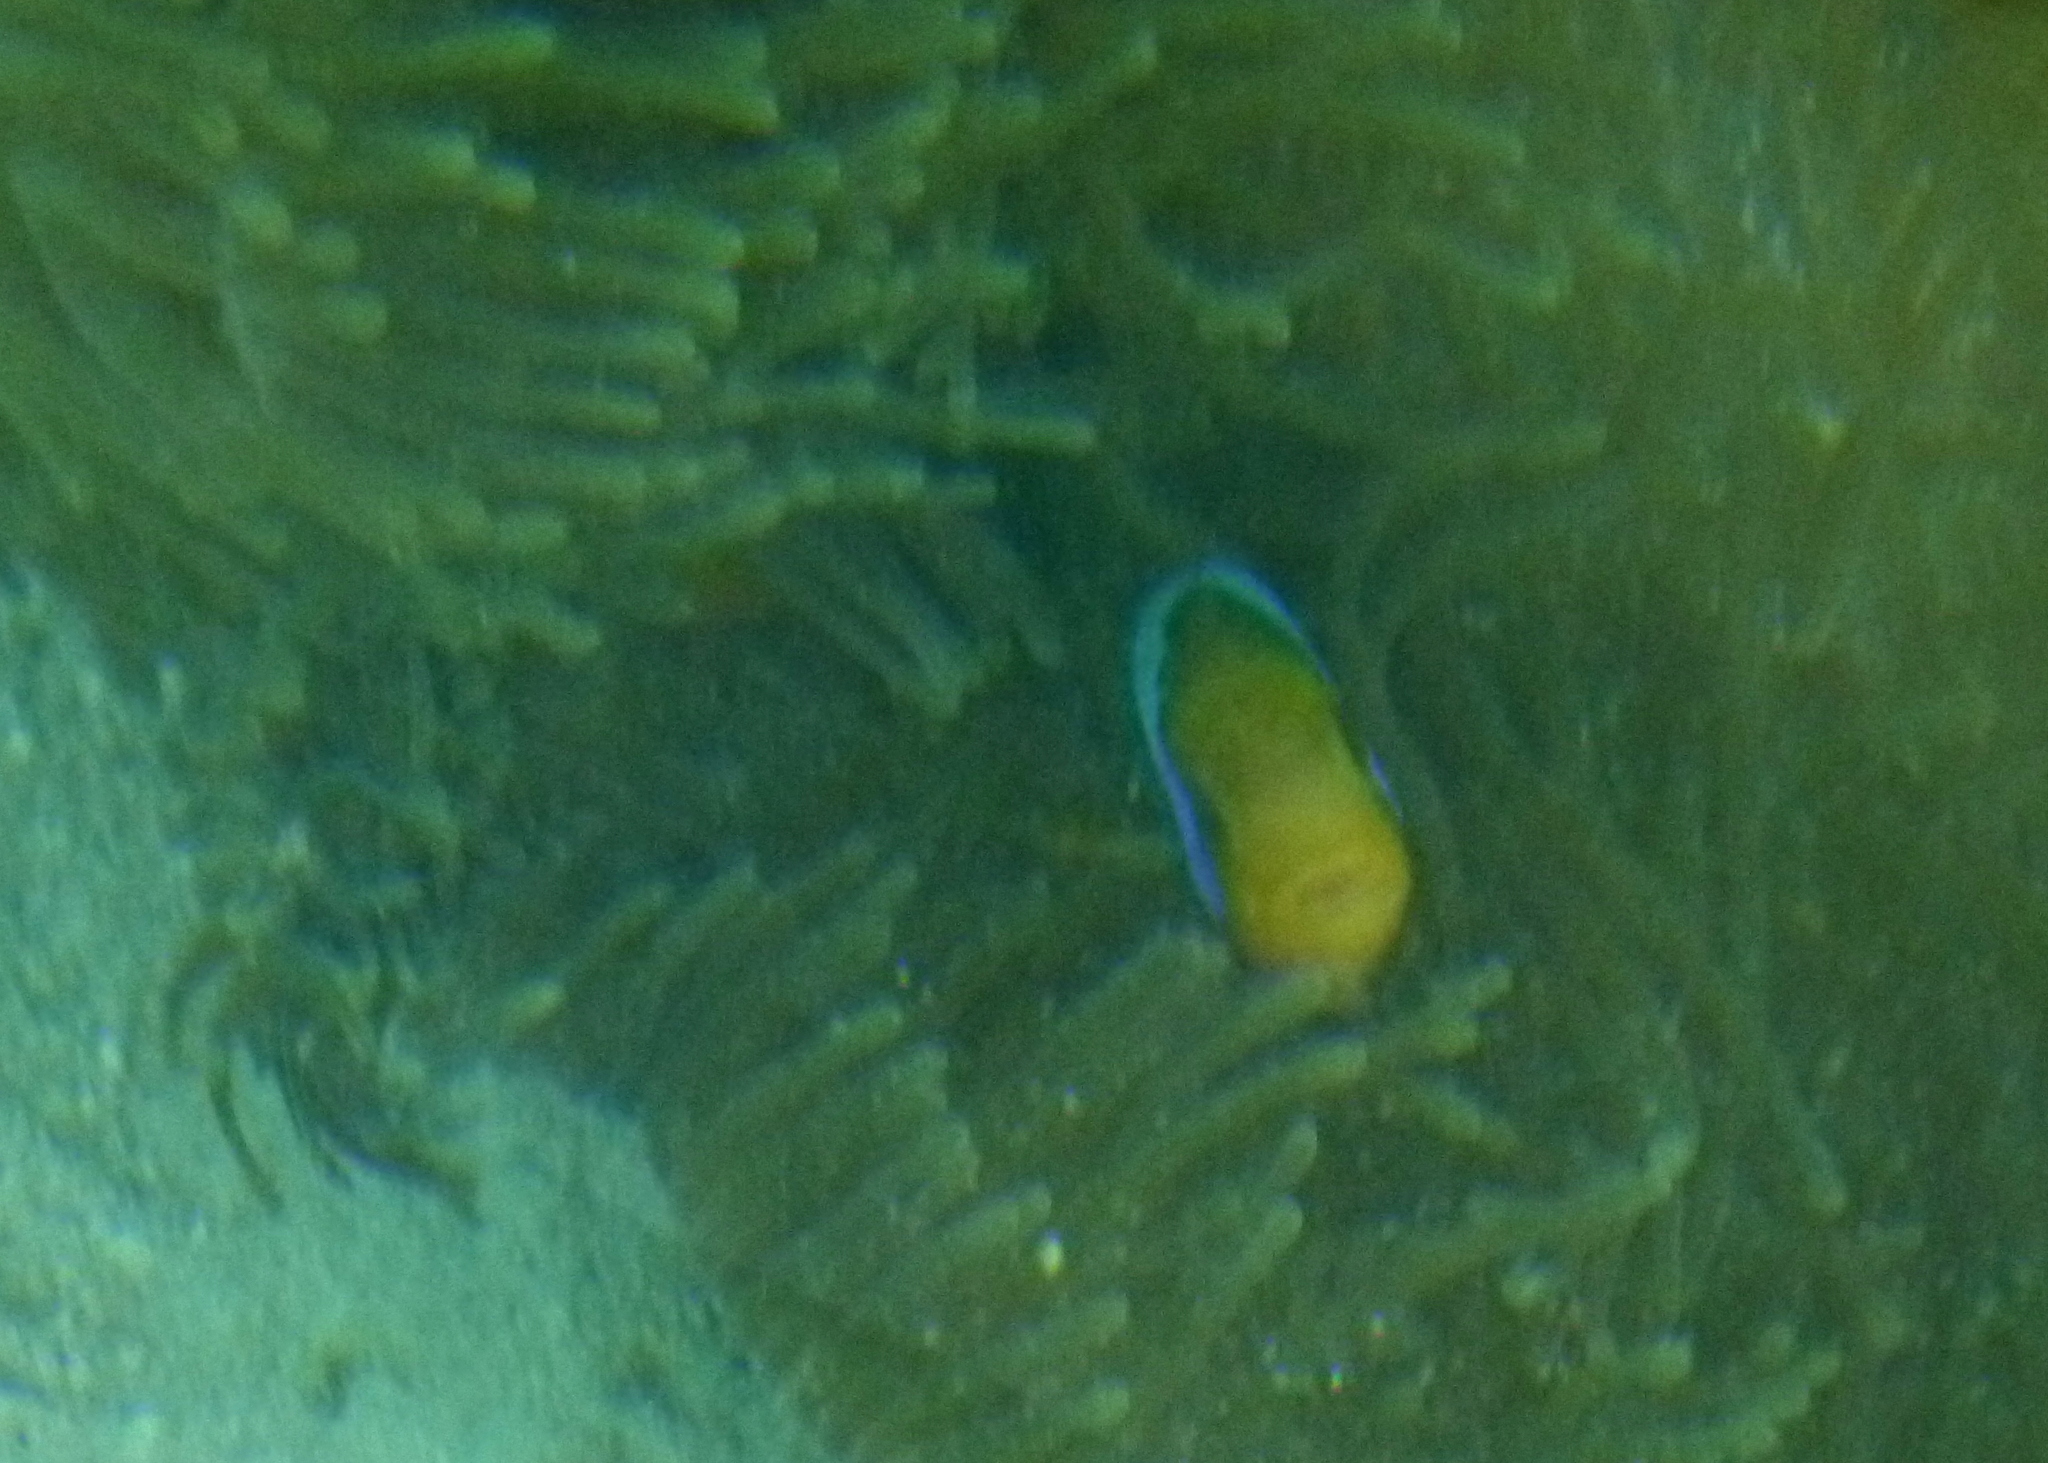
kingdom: Animalia
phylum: Chordata
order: Perciformes
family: Pomacentridae
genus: Amphiprion
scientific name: Amphiprion chrysopterus
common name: Orange-fin anemonefish
